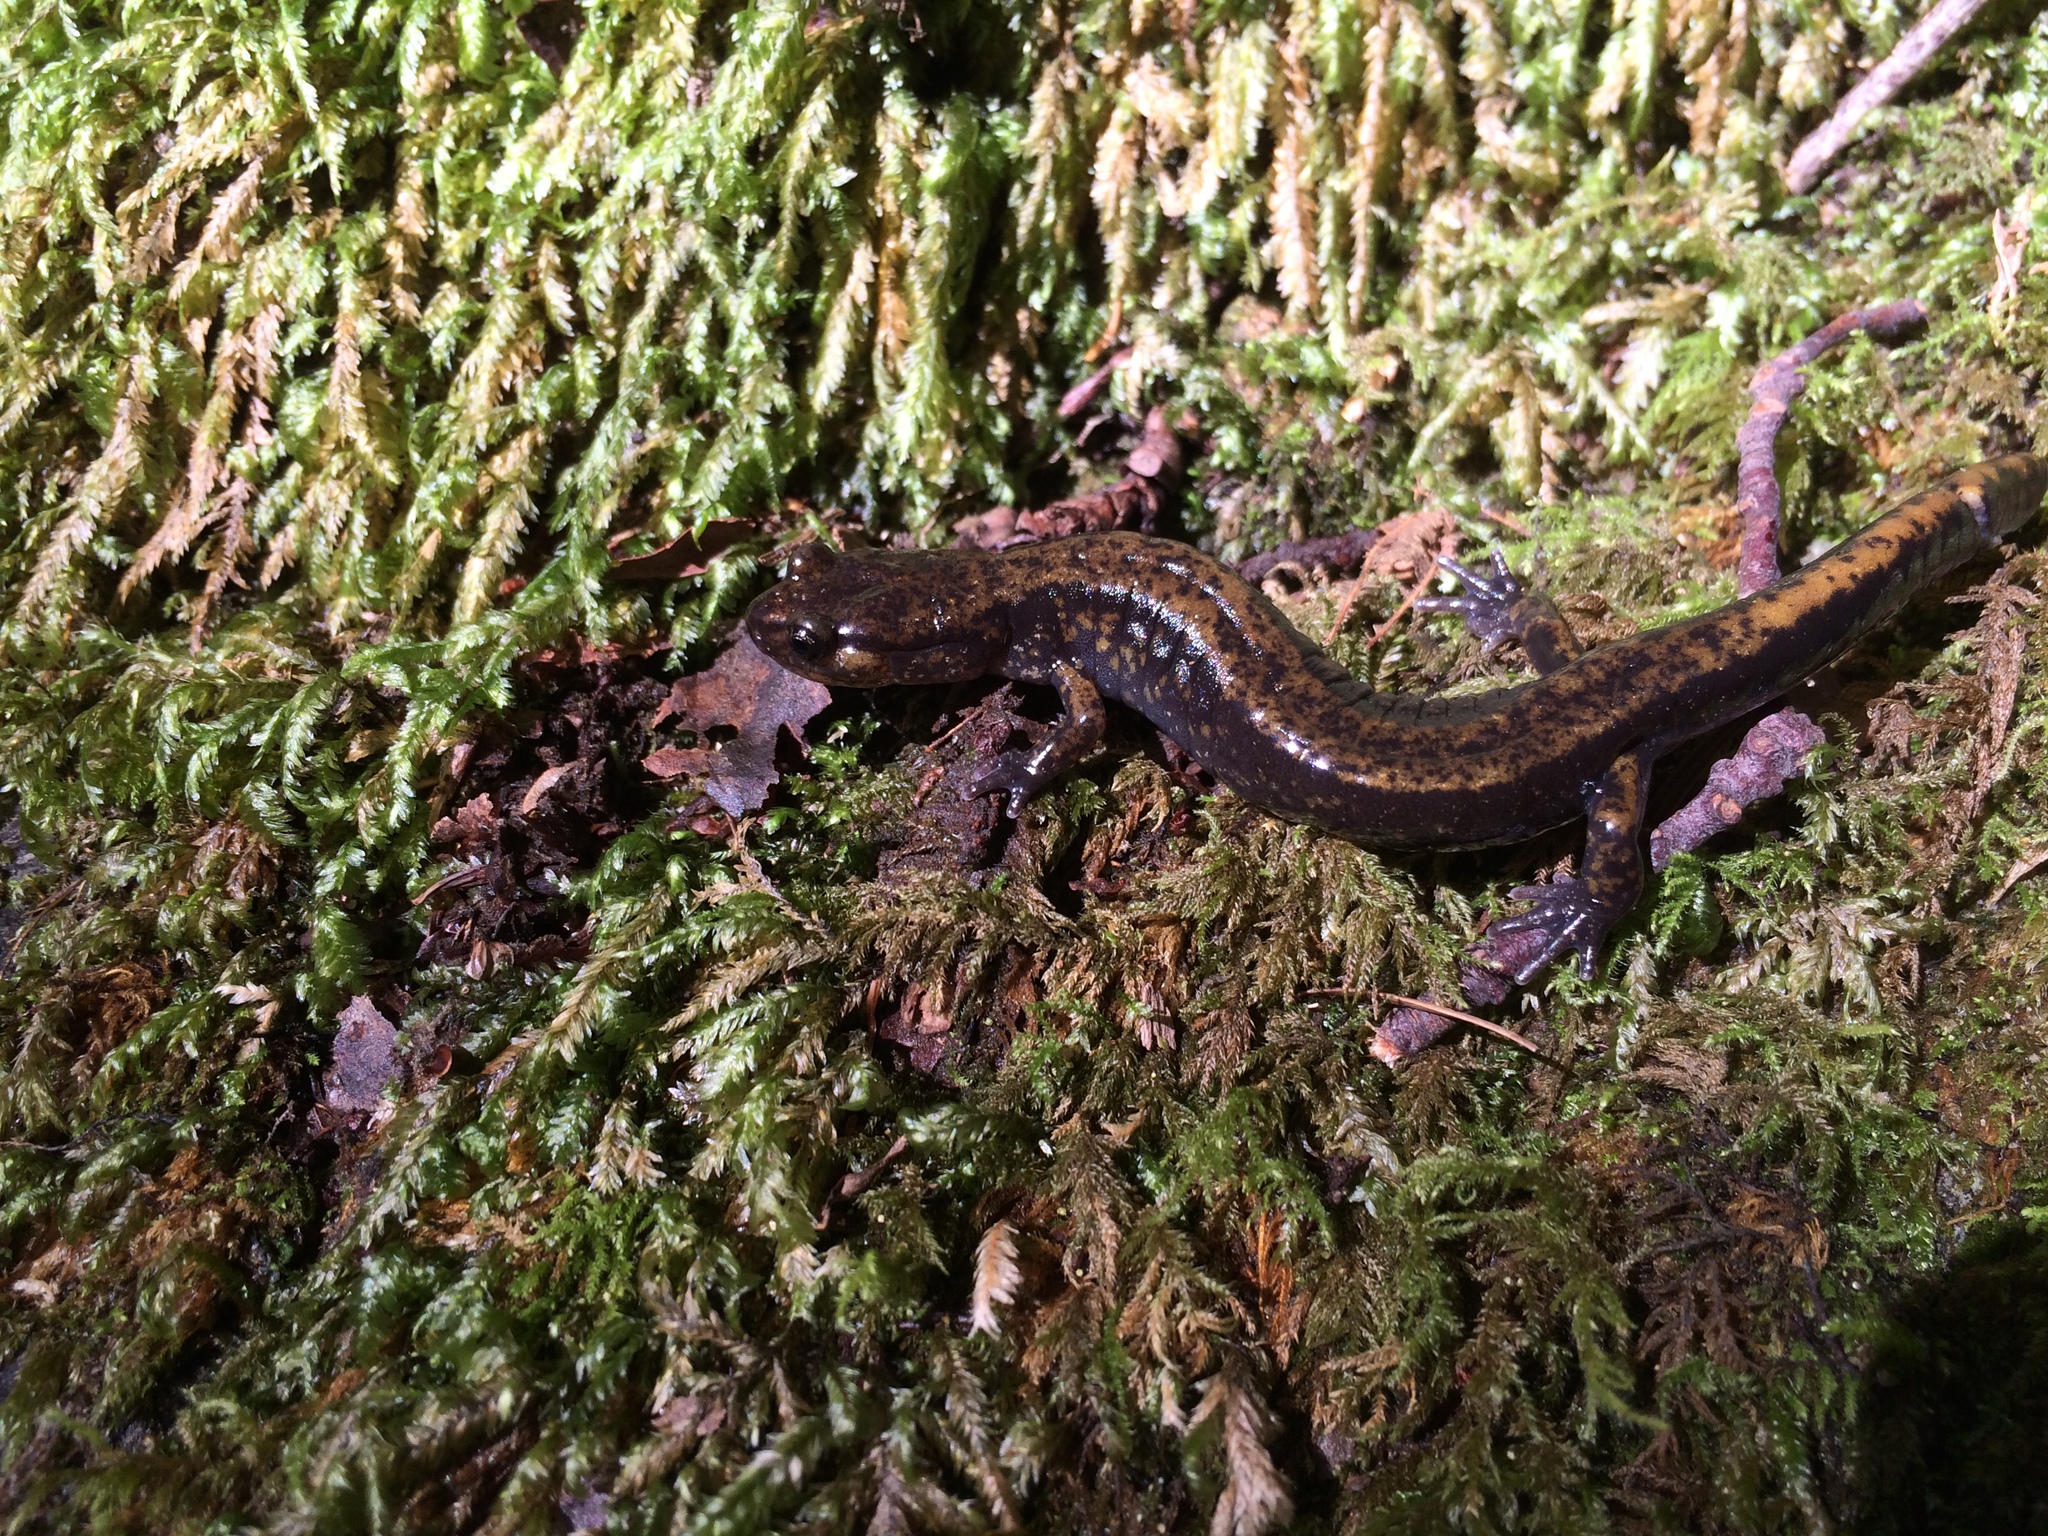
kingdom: Animalia
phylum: Chordata
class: Amphibia
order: Caudata
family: Plethodontidae
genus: Plethodon
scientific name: Plethodon dunni
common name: Dunn's salamander
